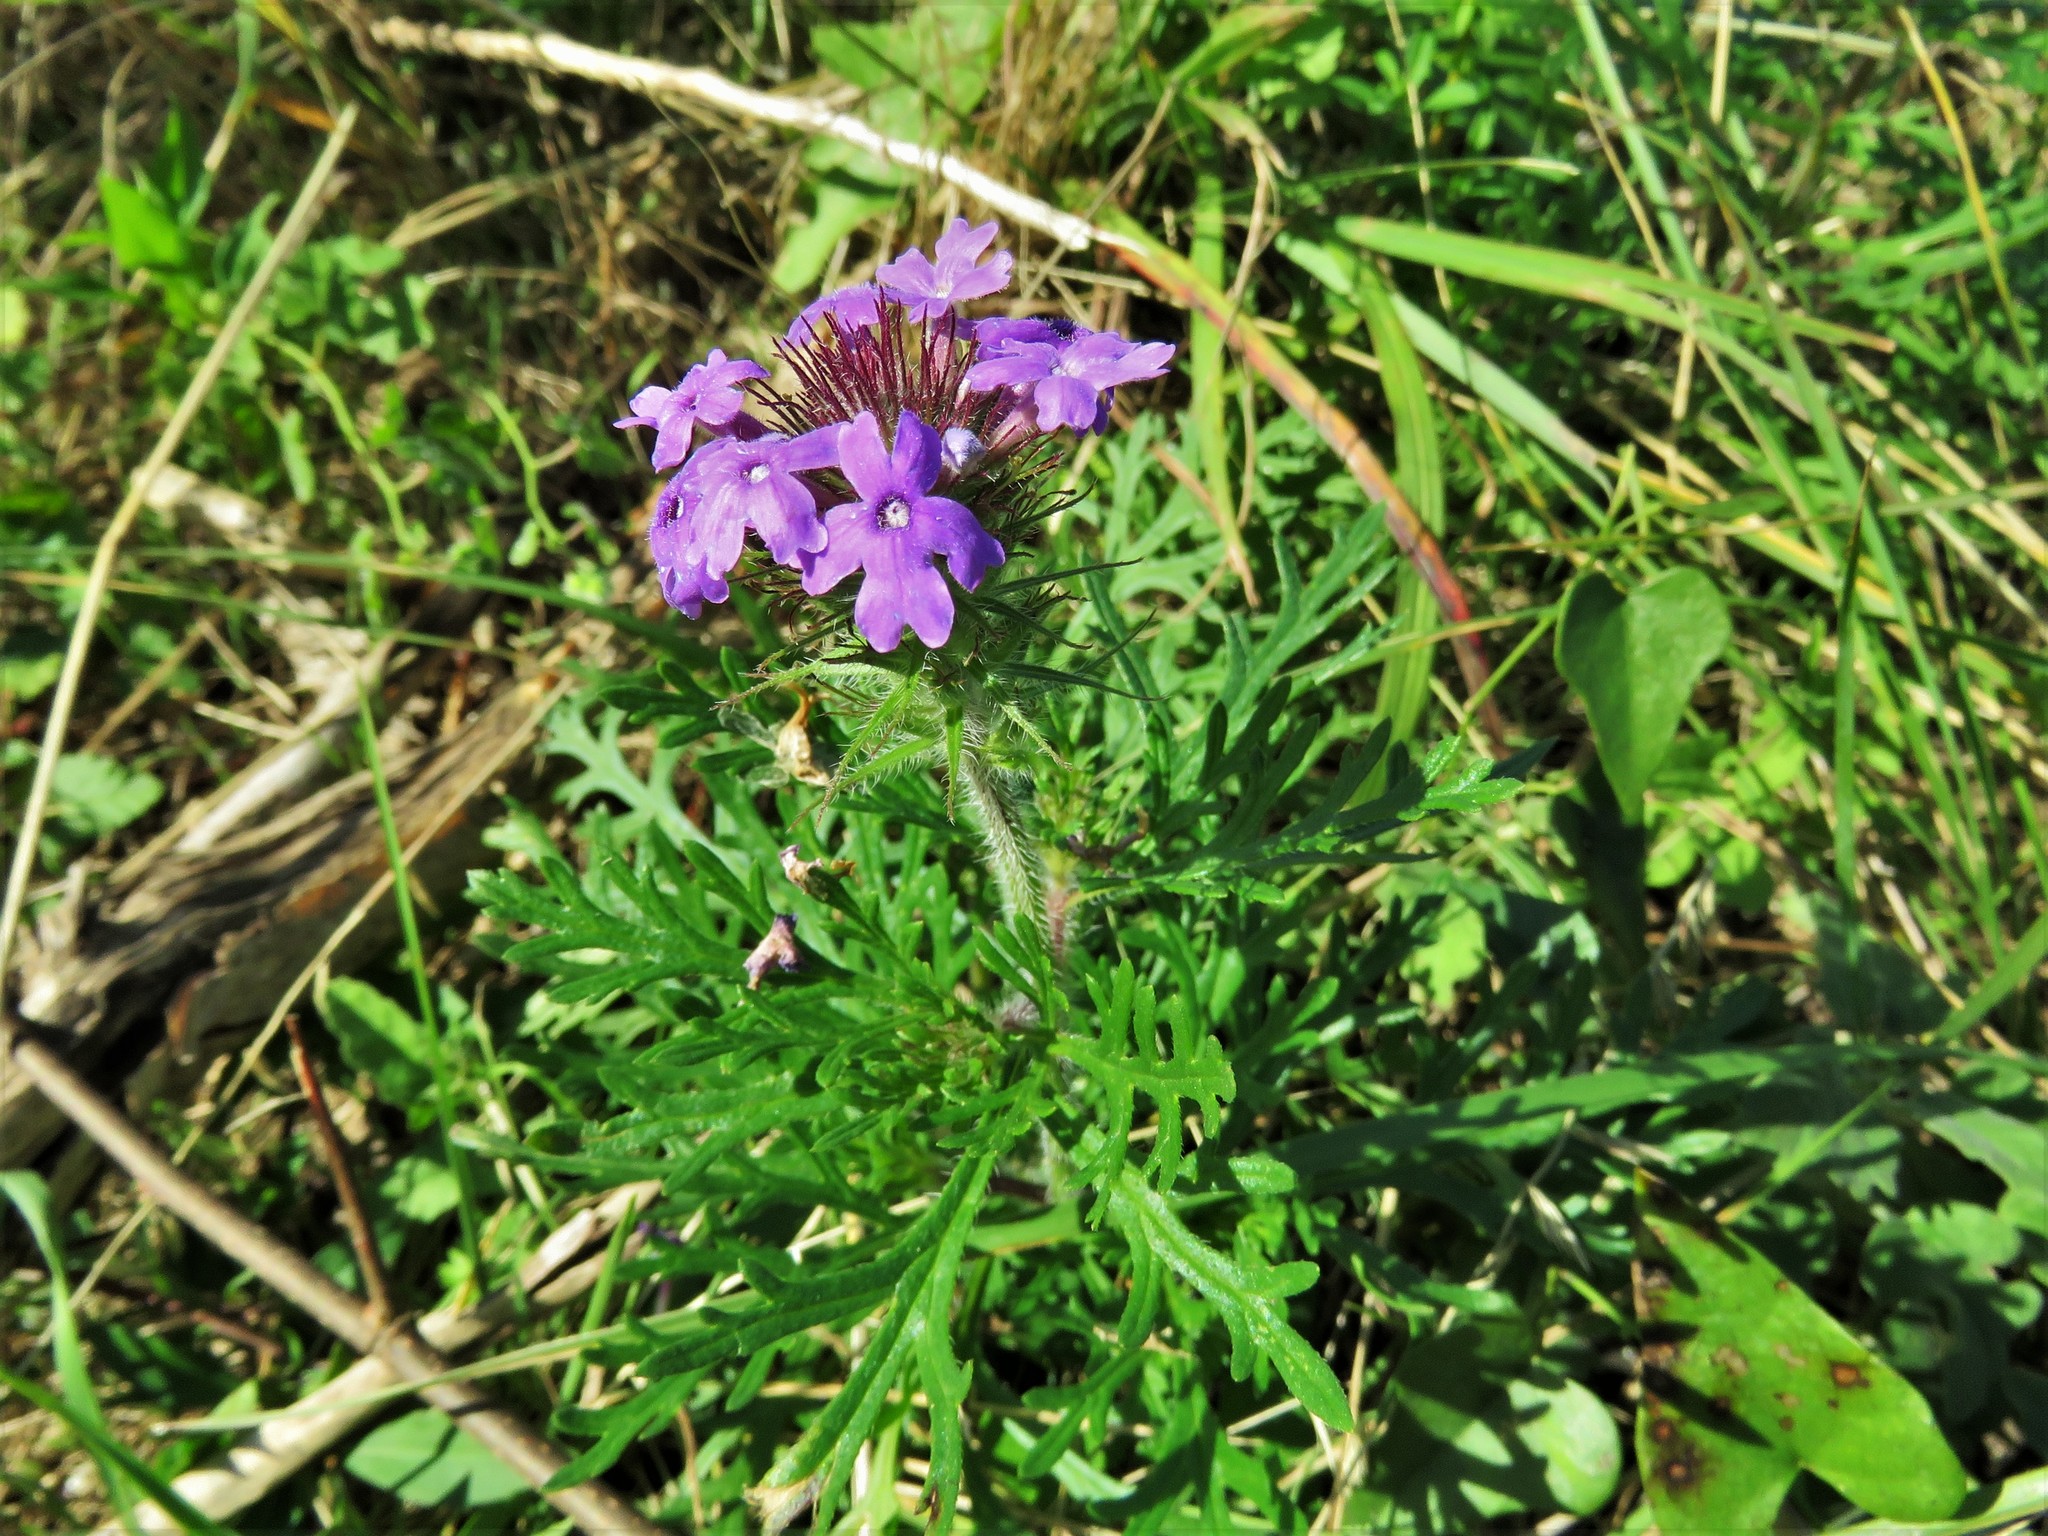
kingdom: Plantae
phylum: Tracheophyta
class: Magnoliopsida
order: Lamiales
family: Verbenaceae
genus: Verbena
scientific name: Verbena bipinnatifida
